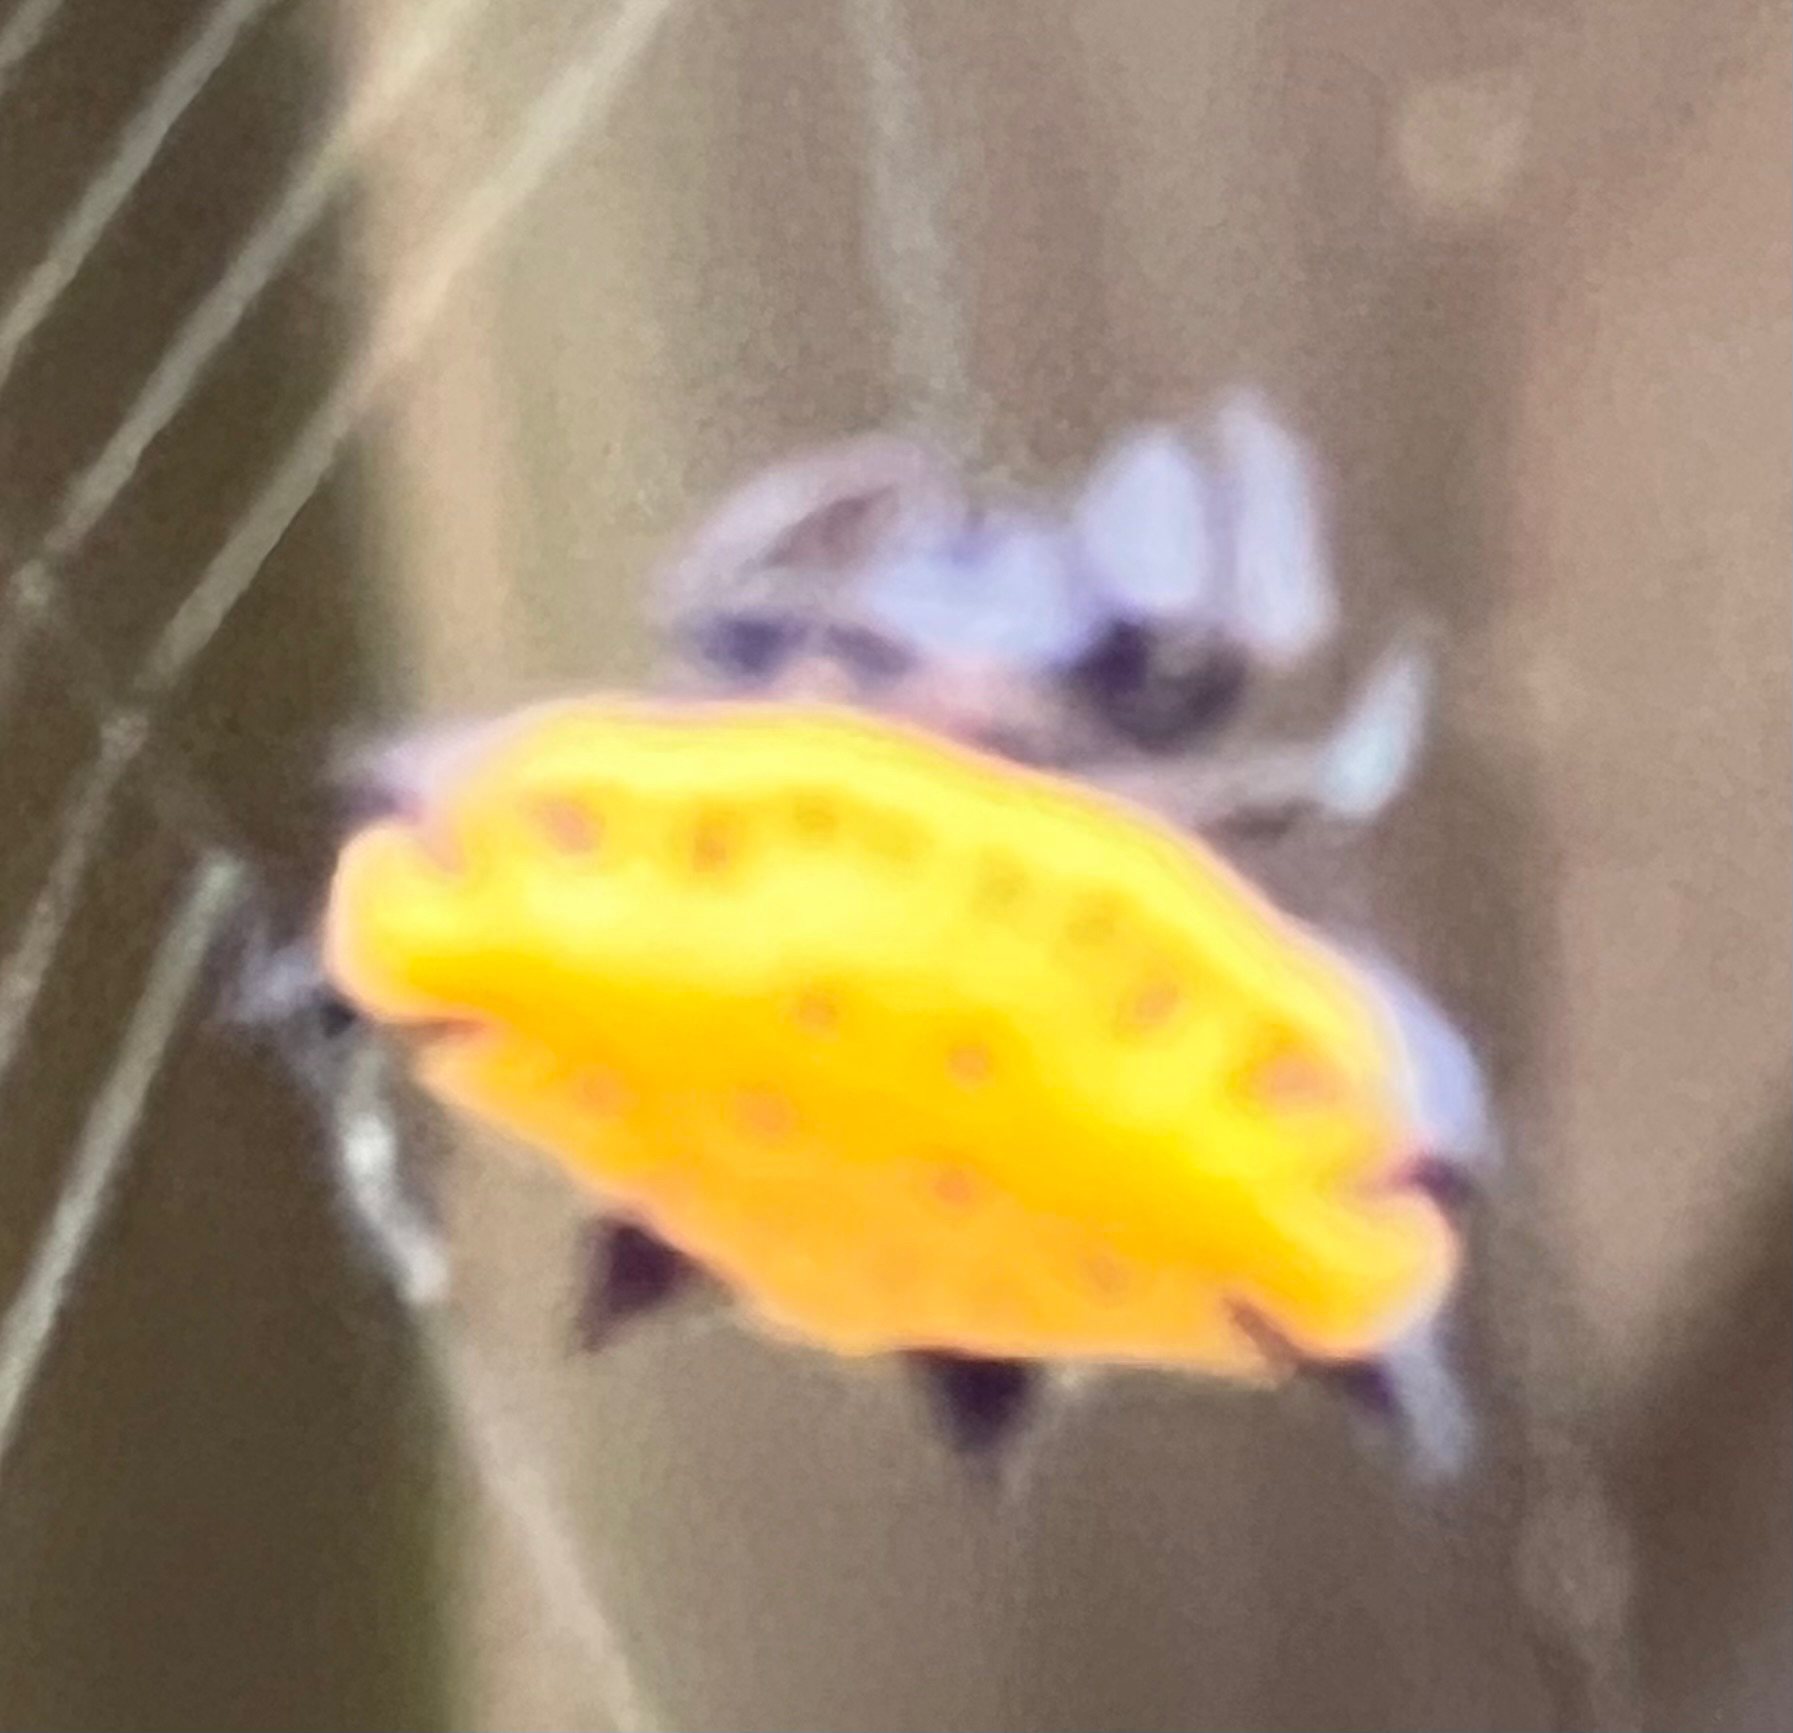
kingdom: Animalia
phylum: Arthropoda
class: Arachnida
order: Araneae
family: Araneidae
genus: Gasteracantha
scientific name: Gasteracantha cancriformis
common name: Orb weavers
